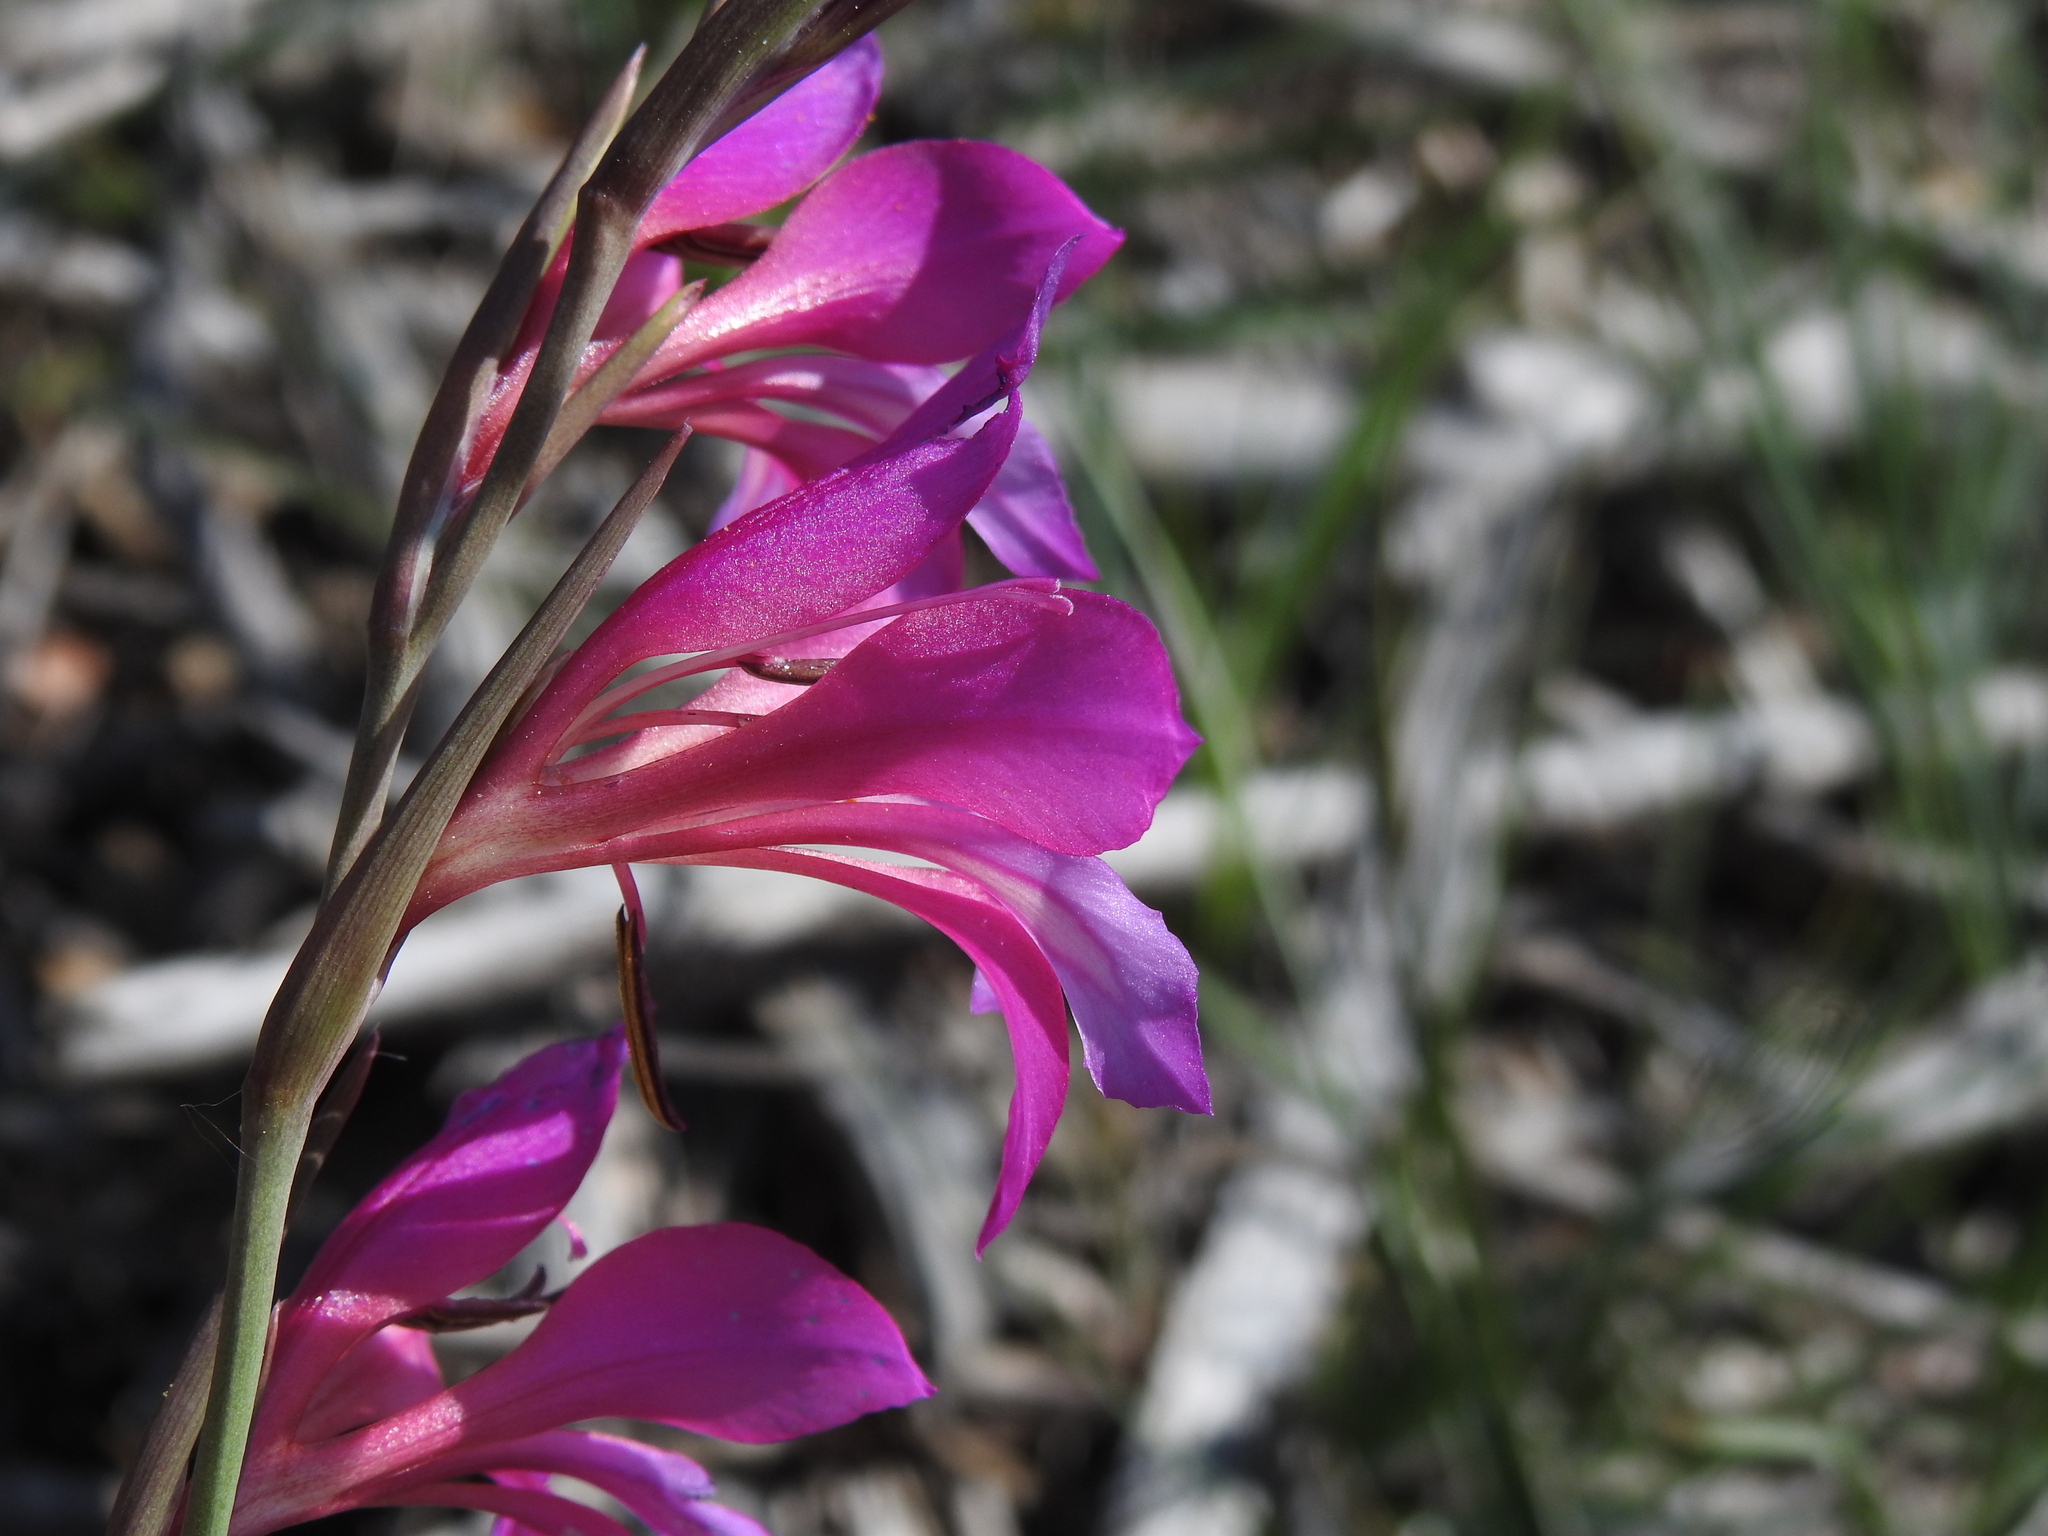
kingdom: Plantae
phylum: Tracheophyta
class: Liliopsida
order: Asparagales
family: Iridaceae
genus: Gladiolus
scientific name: Gladiolus dubius
